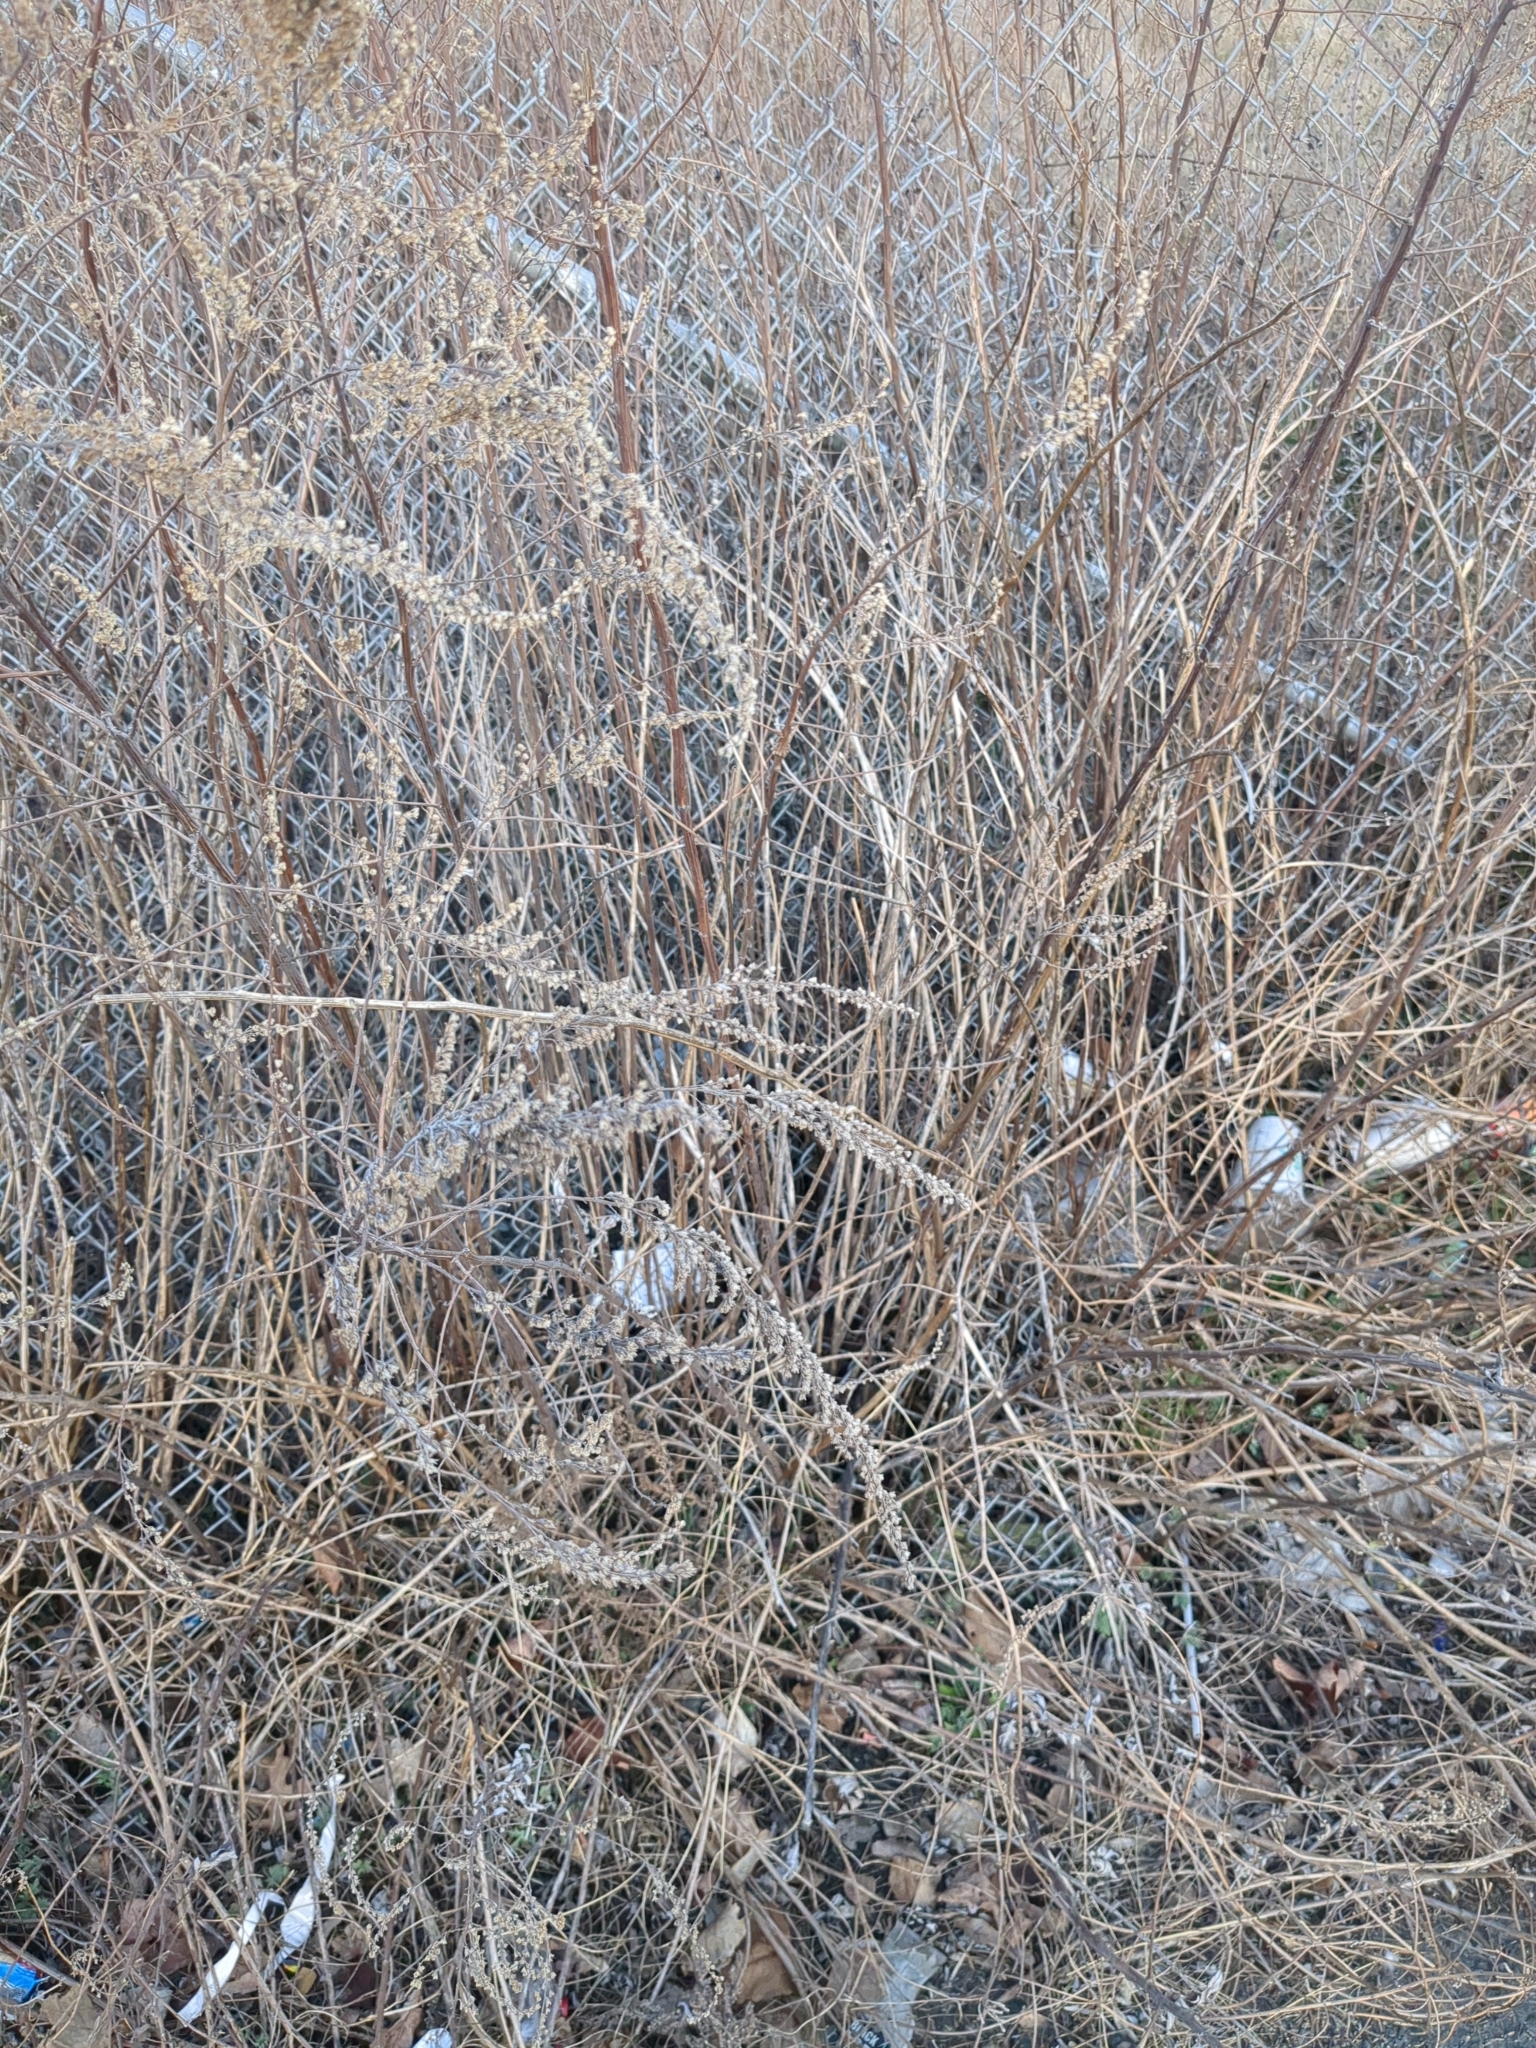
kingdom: Plantae
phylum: Tracheophyta
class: Magnoliopsida
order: Asterales
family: Asteraceae
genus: Artemisia
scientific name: Artemisia vulgaris
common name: Mugwort
